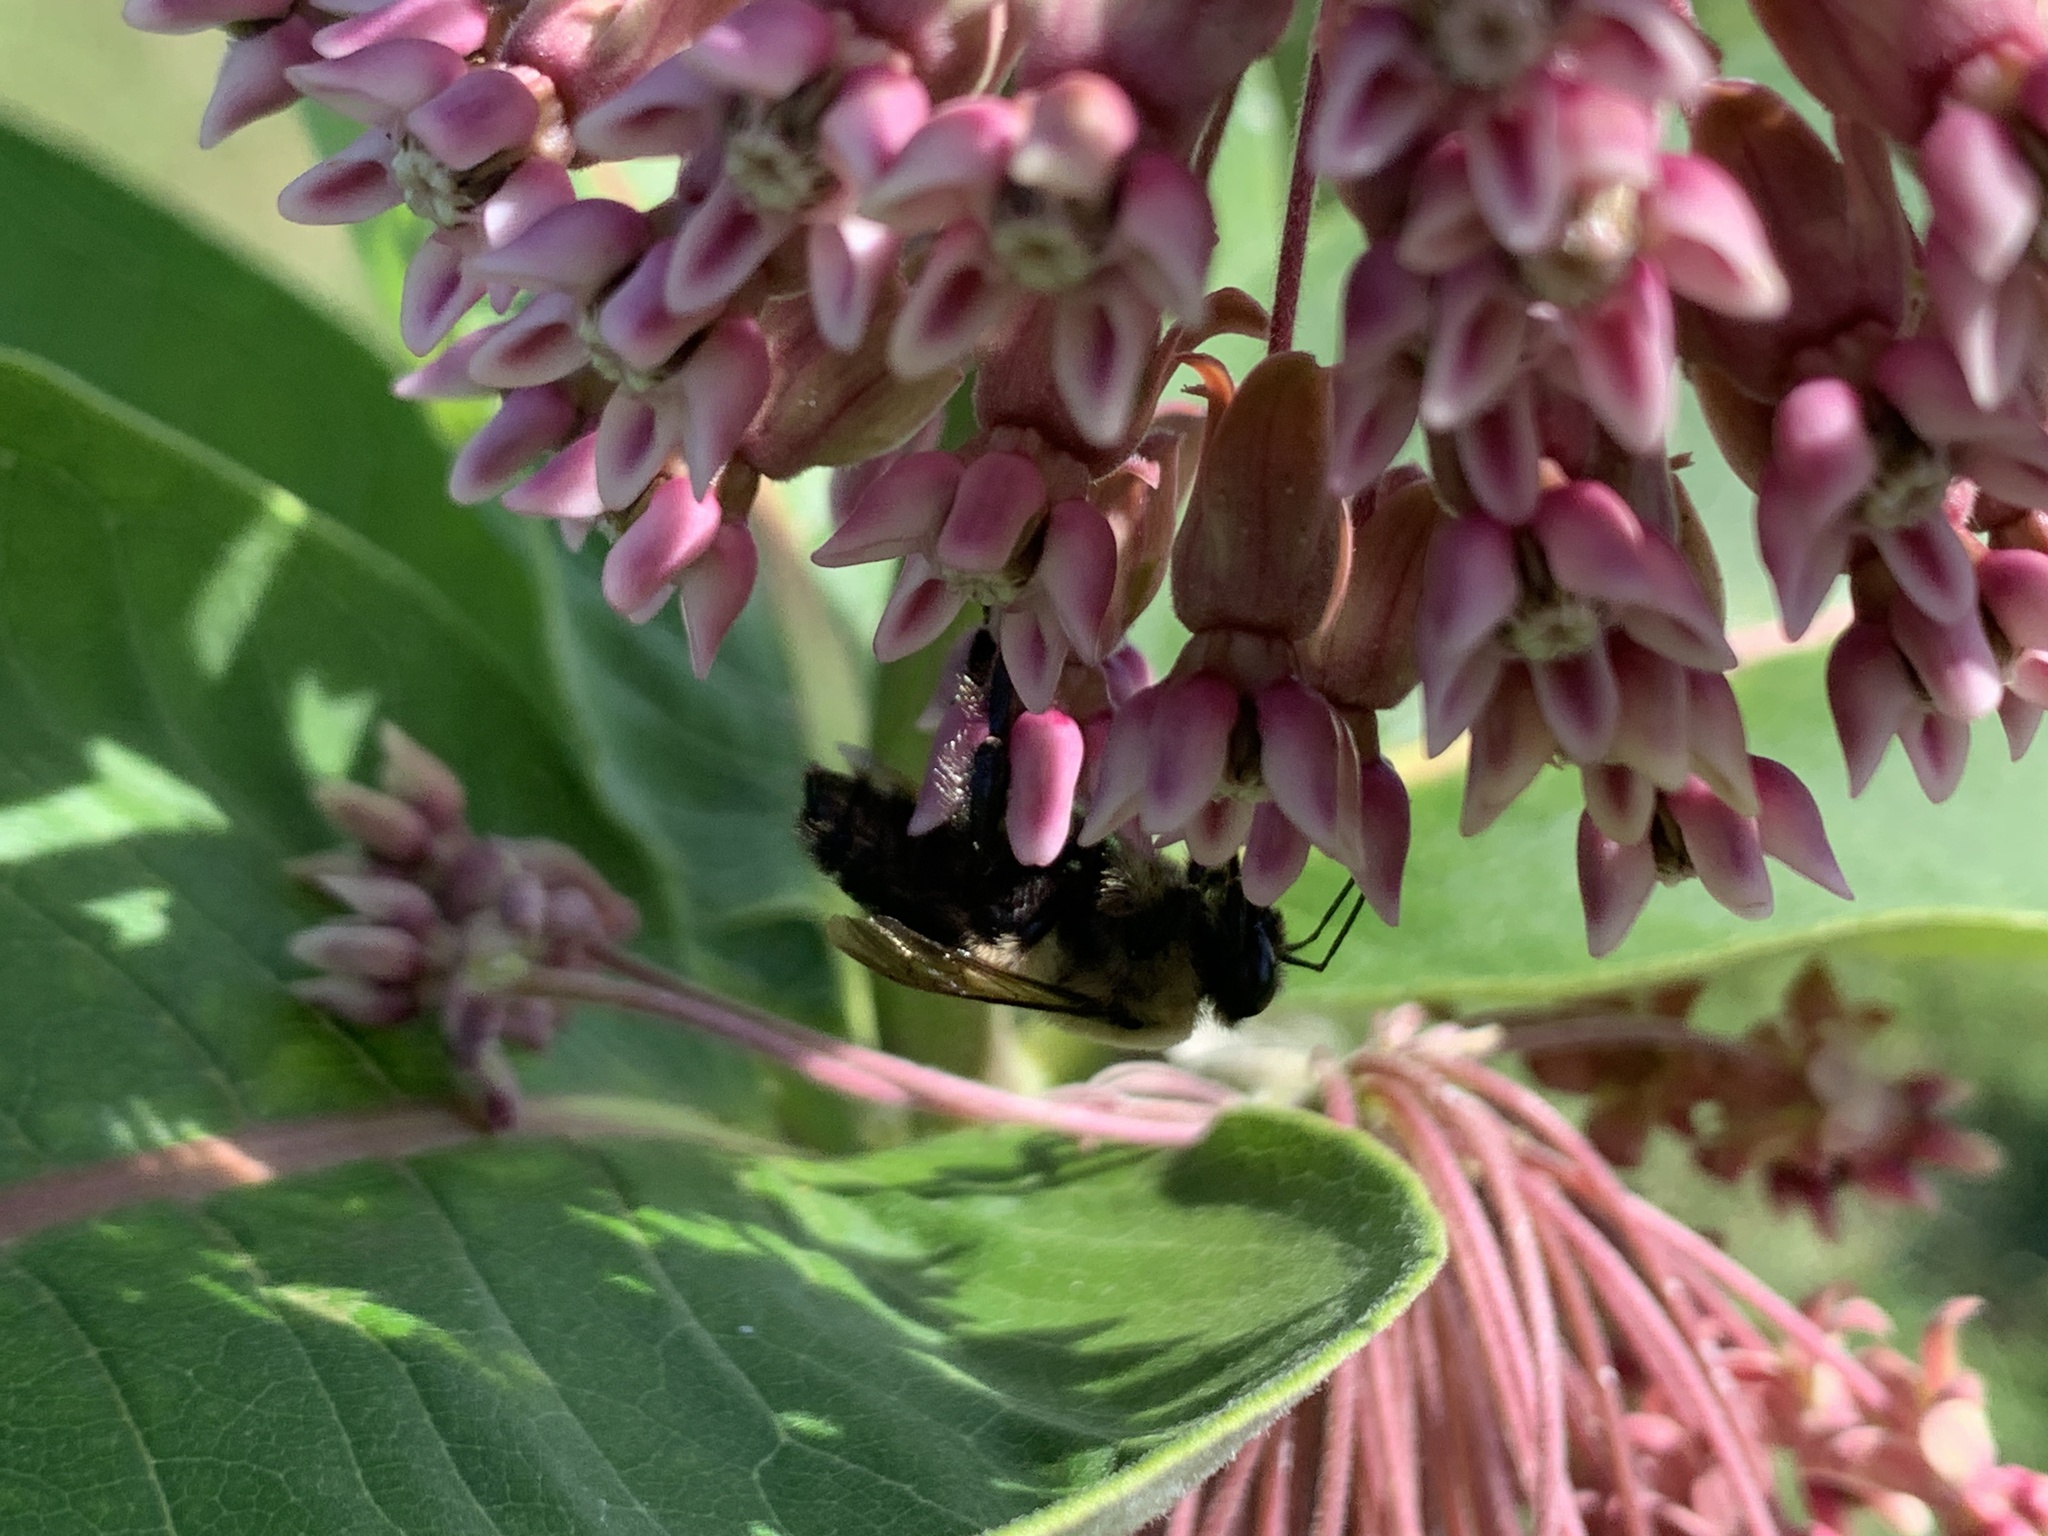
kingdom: Animalia
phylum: Arthropoda
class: Insecta
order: Hymenoptera
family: Apidae
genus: Bombus
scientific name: Bombus griseocollis
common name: Brown-belted bumble bee
